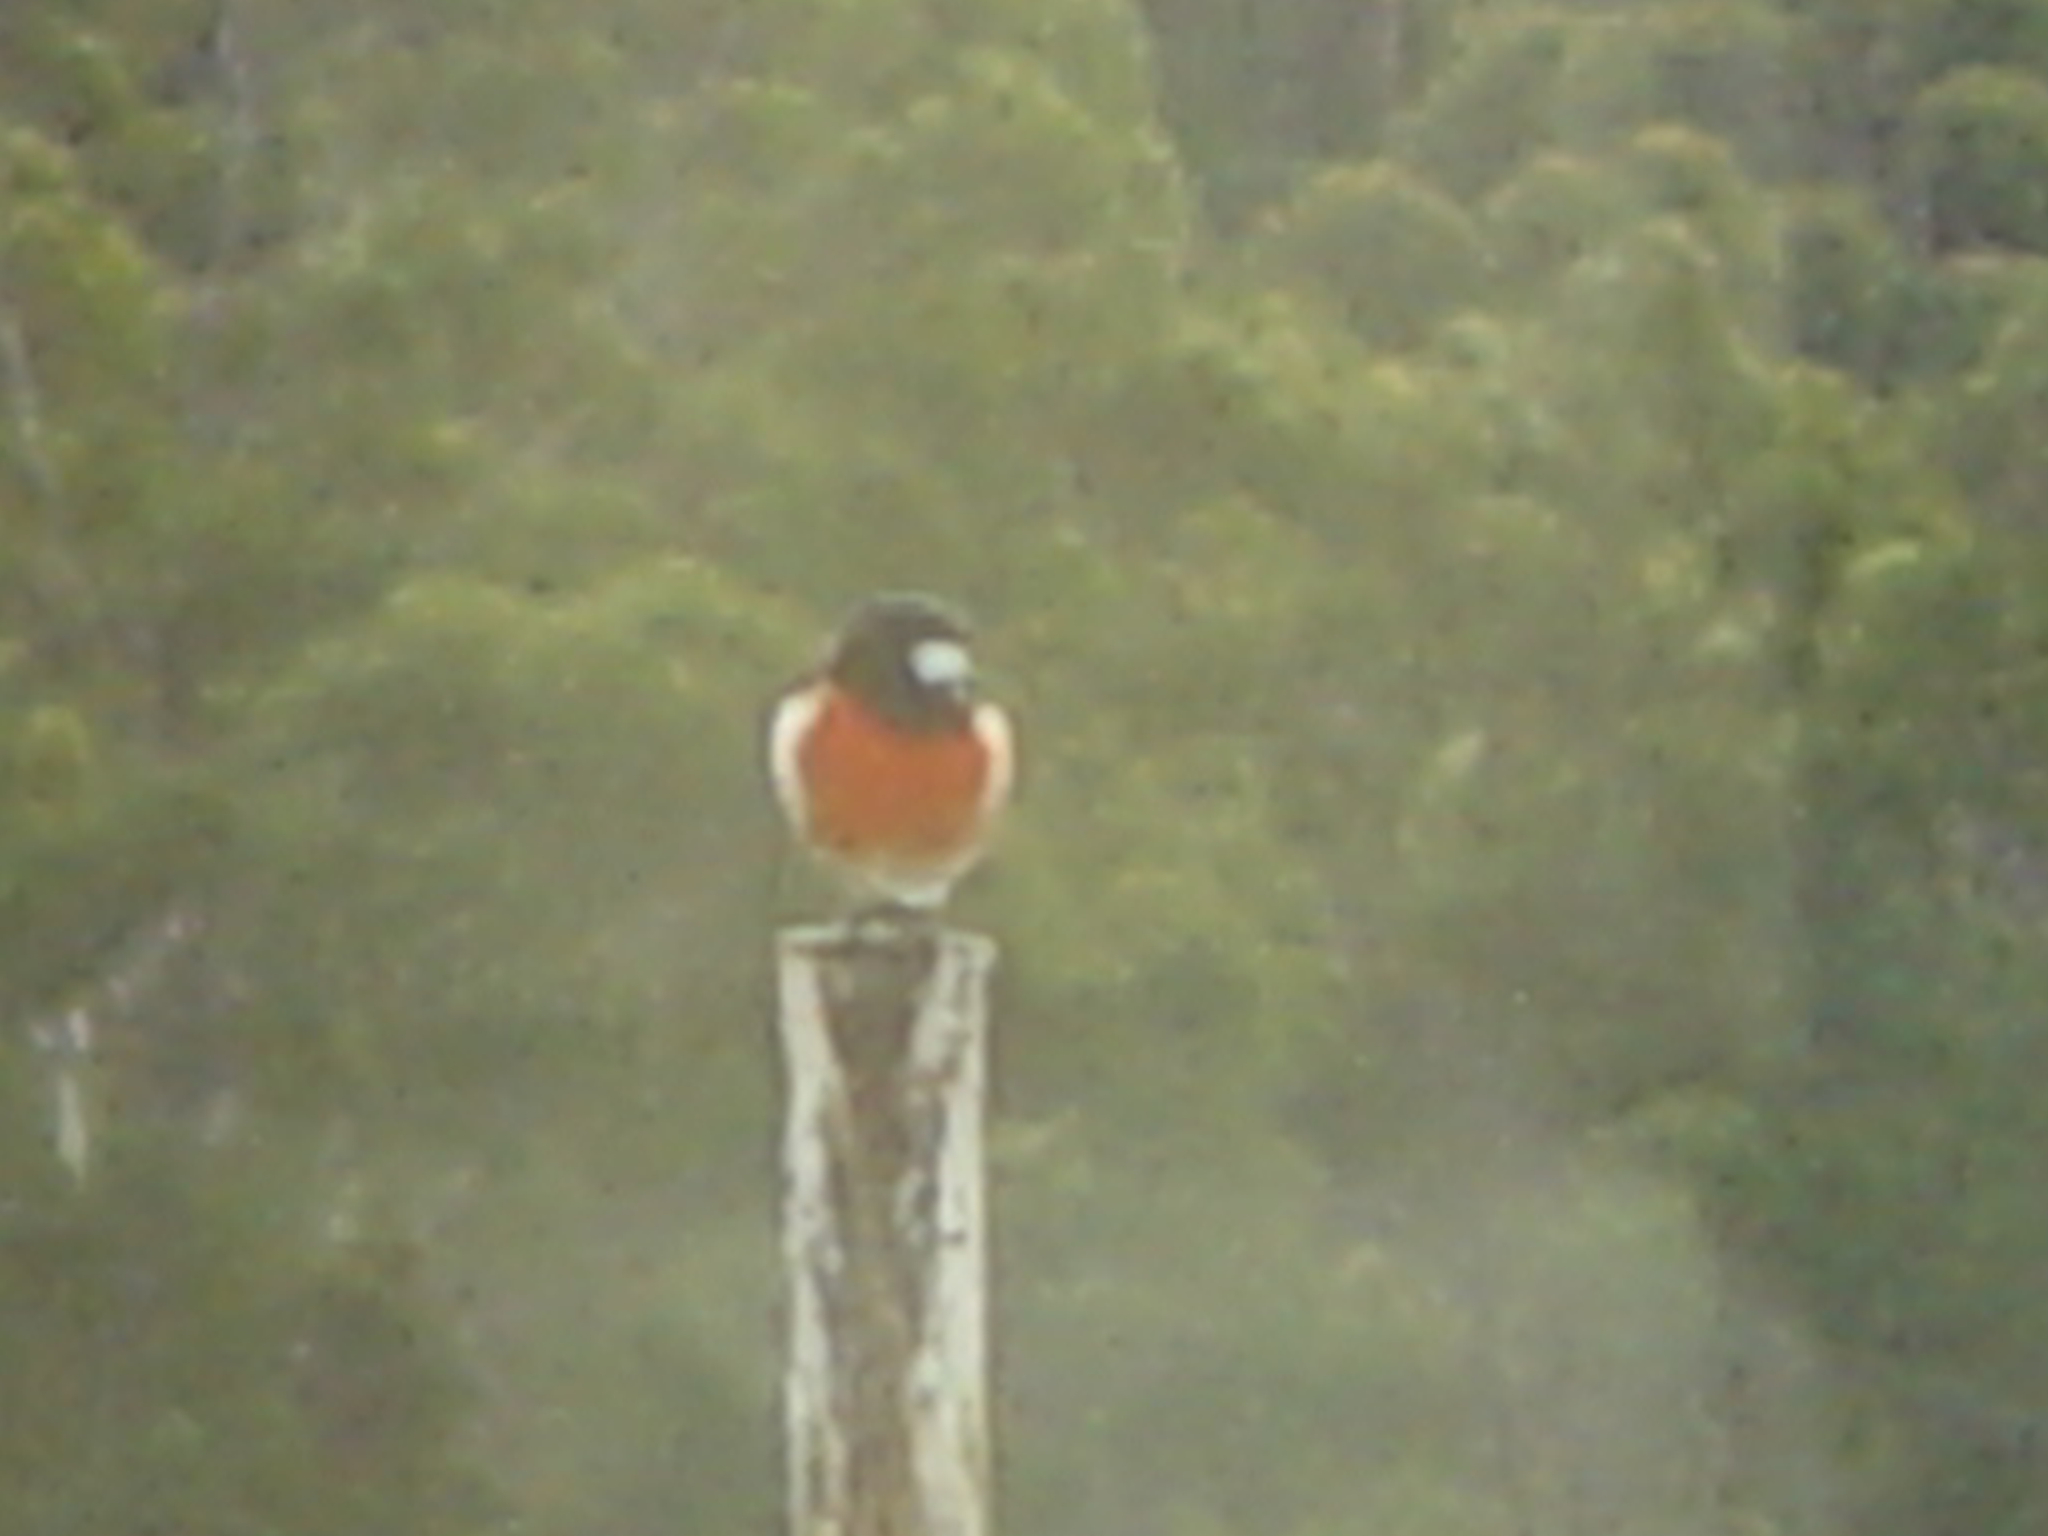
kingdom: Animalia
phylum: Chordata
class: Aves
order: Passeriformes
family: Petroicidae
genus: Petroica
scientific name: Petroica boodang
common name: Scarlet robin
